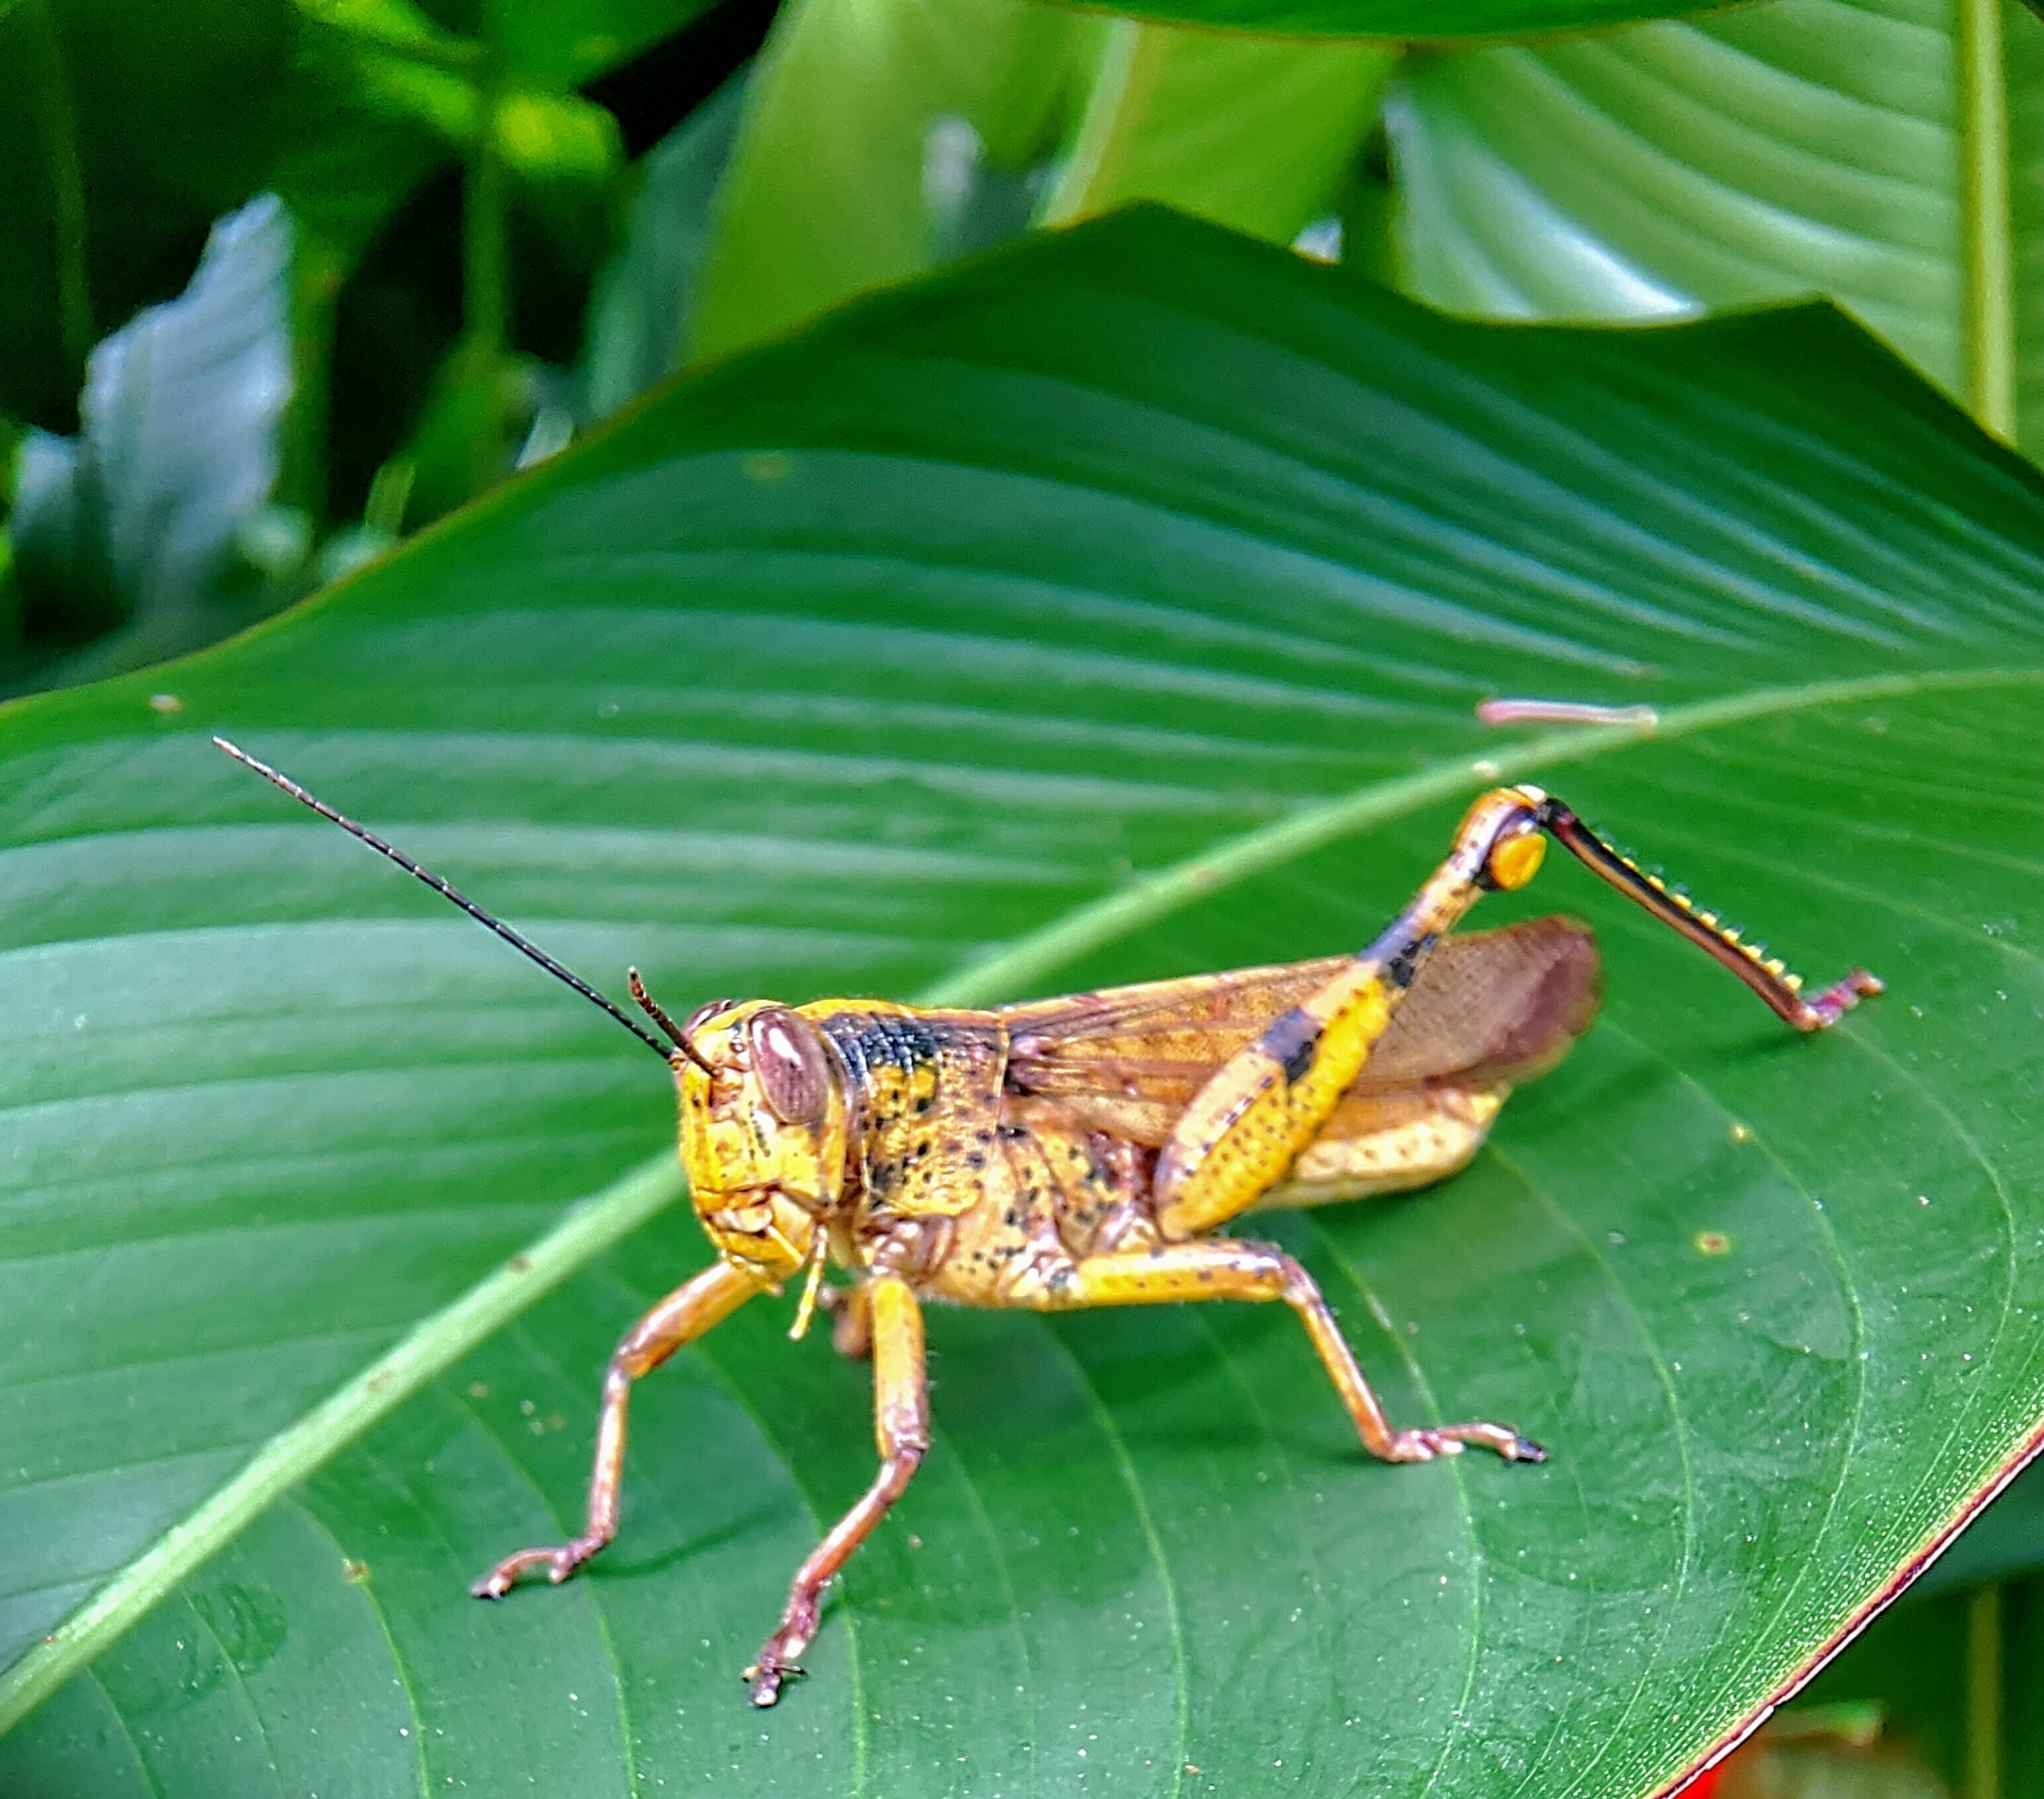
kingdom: Animalia
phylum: Arthropoda
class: Insecta
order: Orthoptera
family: Acrididae
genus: Valanga
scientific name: Valanga nigricornis
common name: Javanese bird grasshopper
